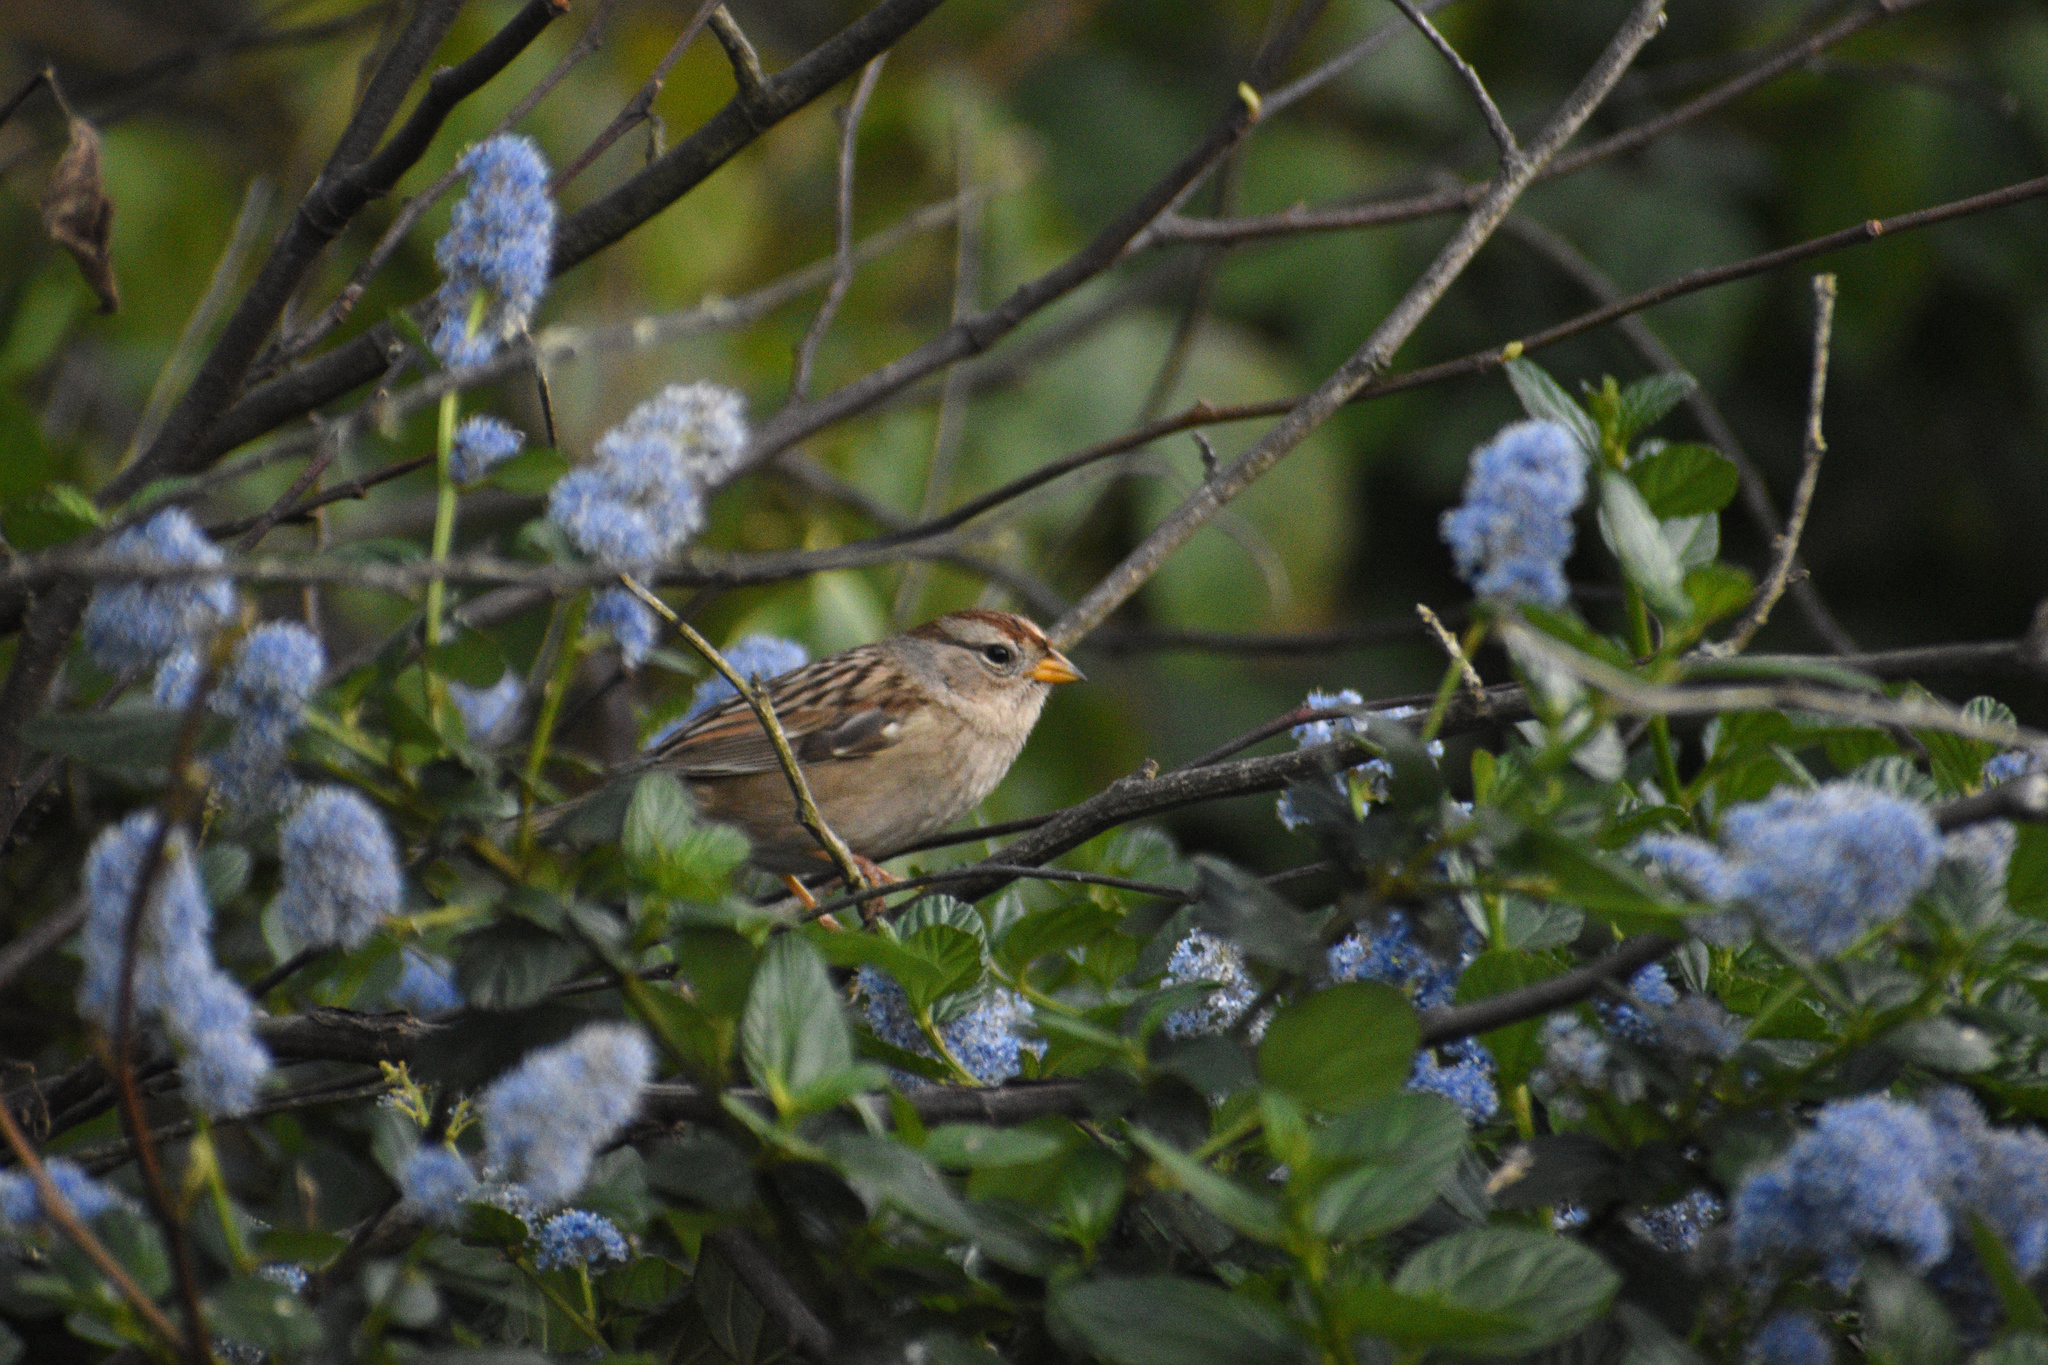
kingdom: Animalia
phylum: Chordata
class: Aves
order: Passeriformes
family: Passerellidae
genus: Zonotrichia
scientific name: Zonotrichia leucophrys
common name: White-crowned sparrow
